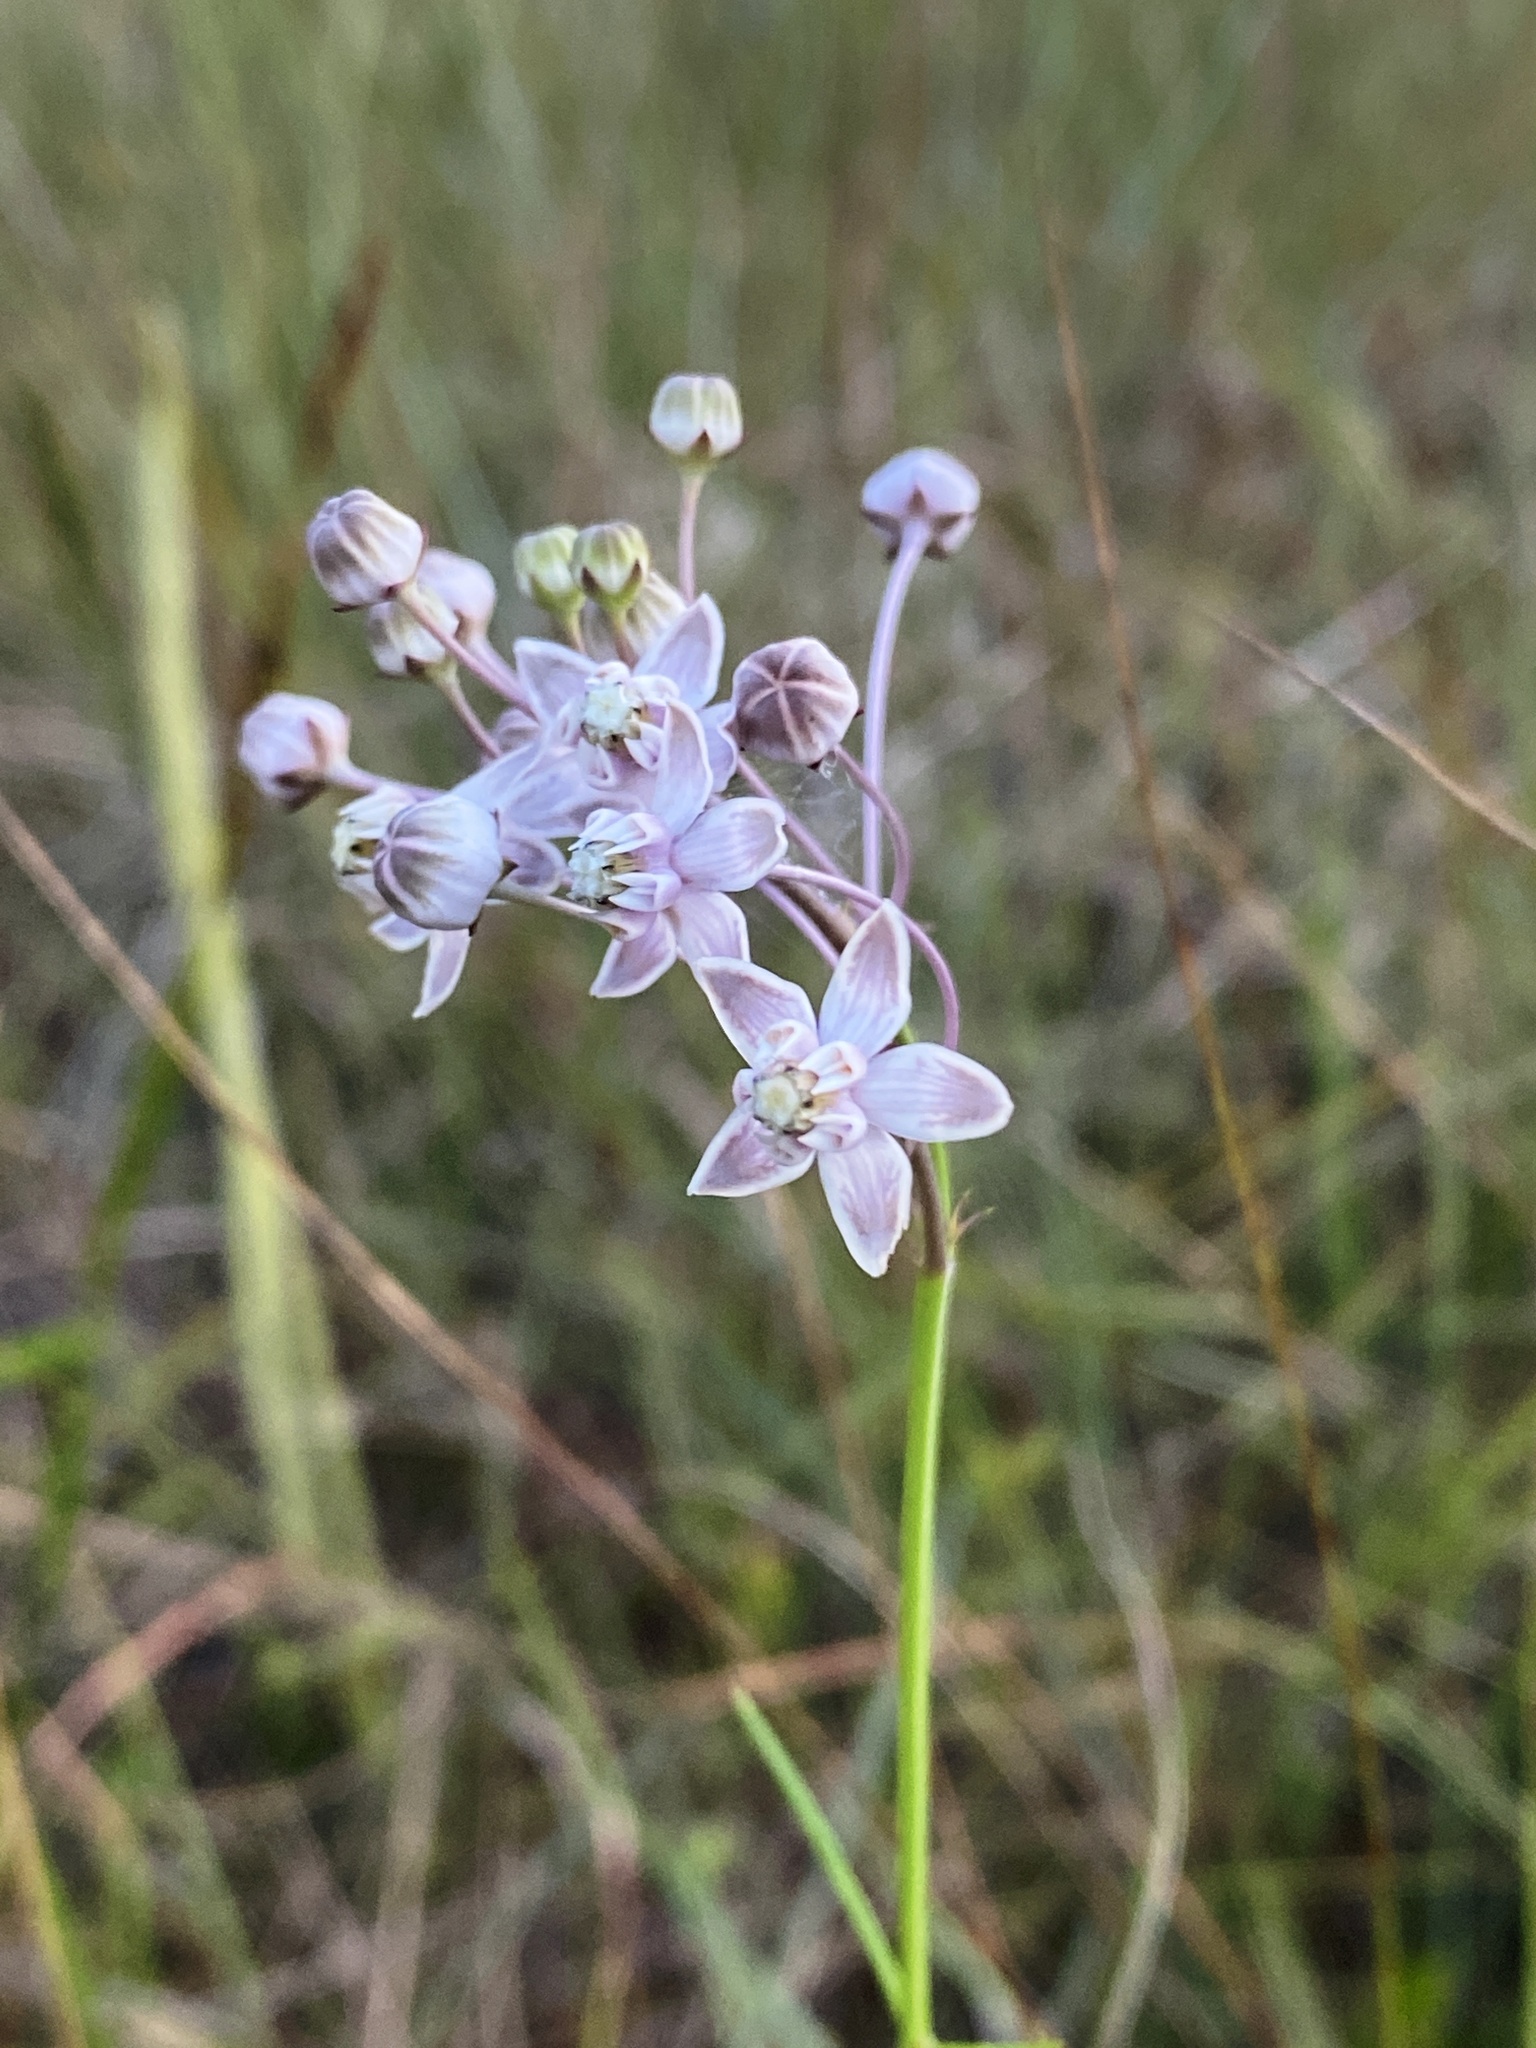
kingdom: Plantae
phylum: Tracheophyta
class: Magnoliopsida
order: Gentianales
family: Apocynaceae
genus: Asclepias
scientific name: Asclepias cinerea
